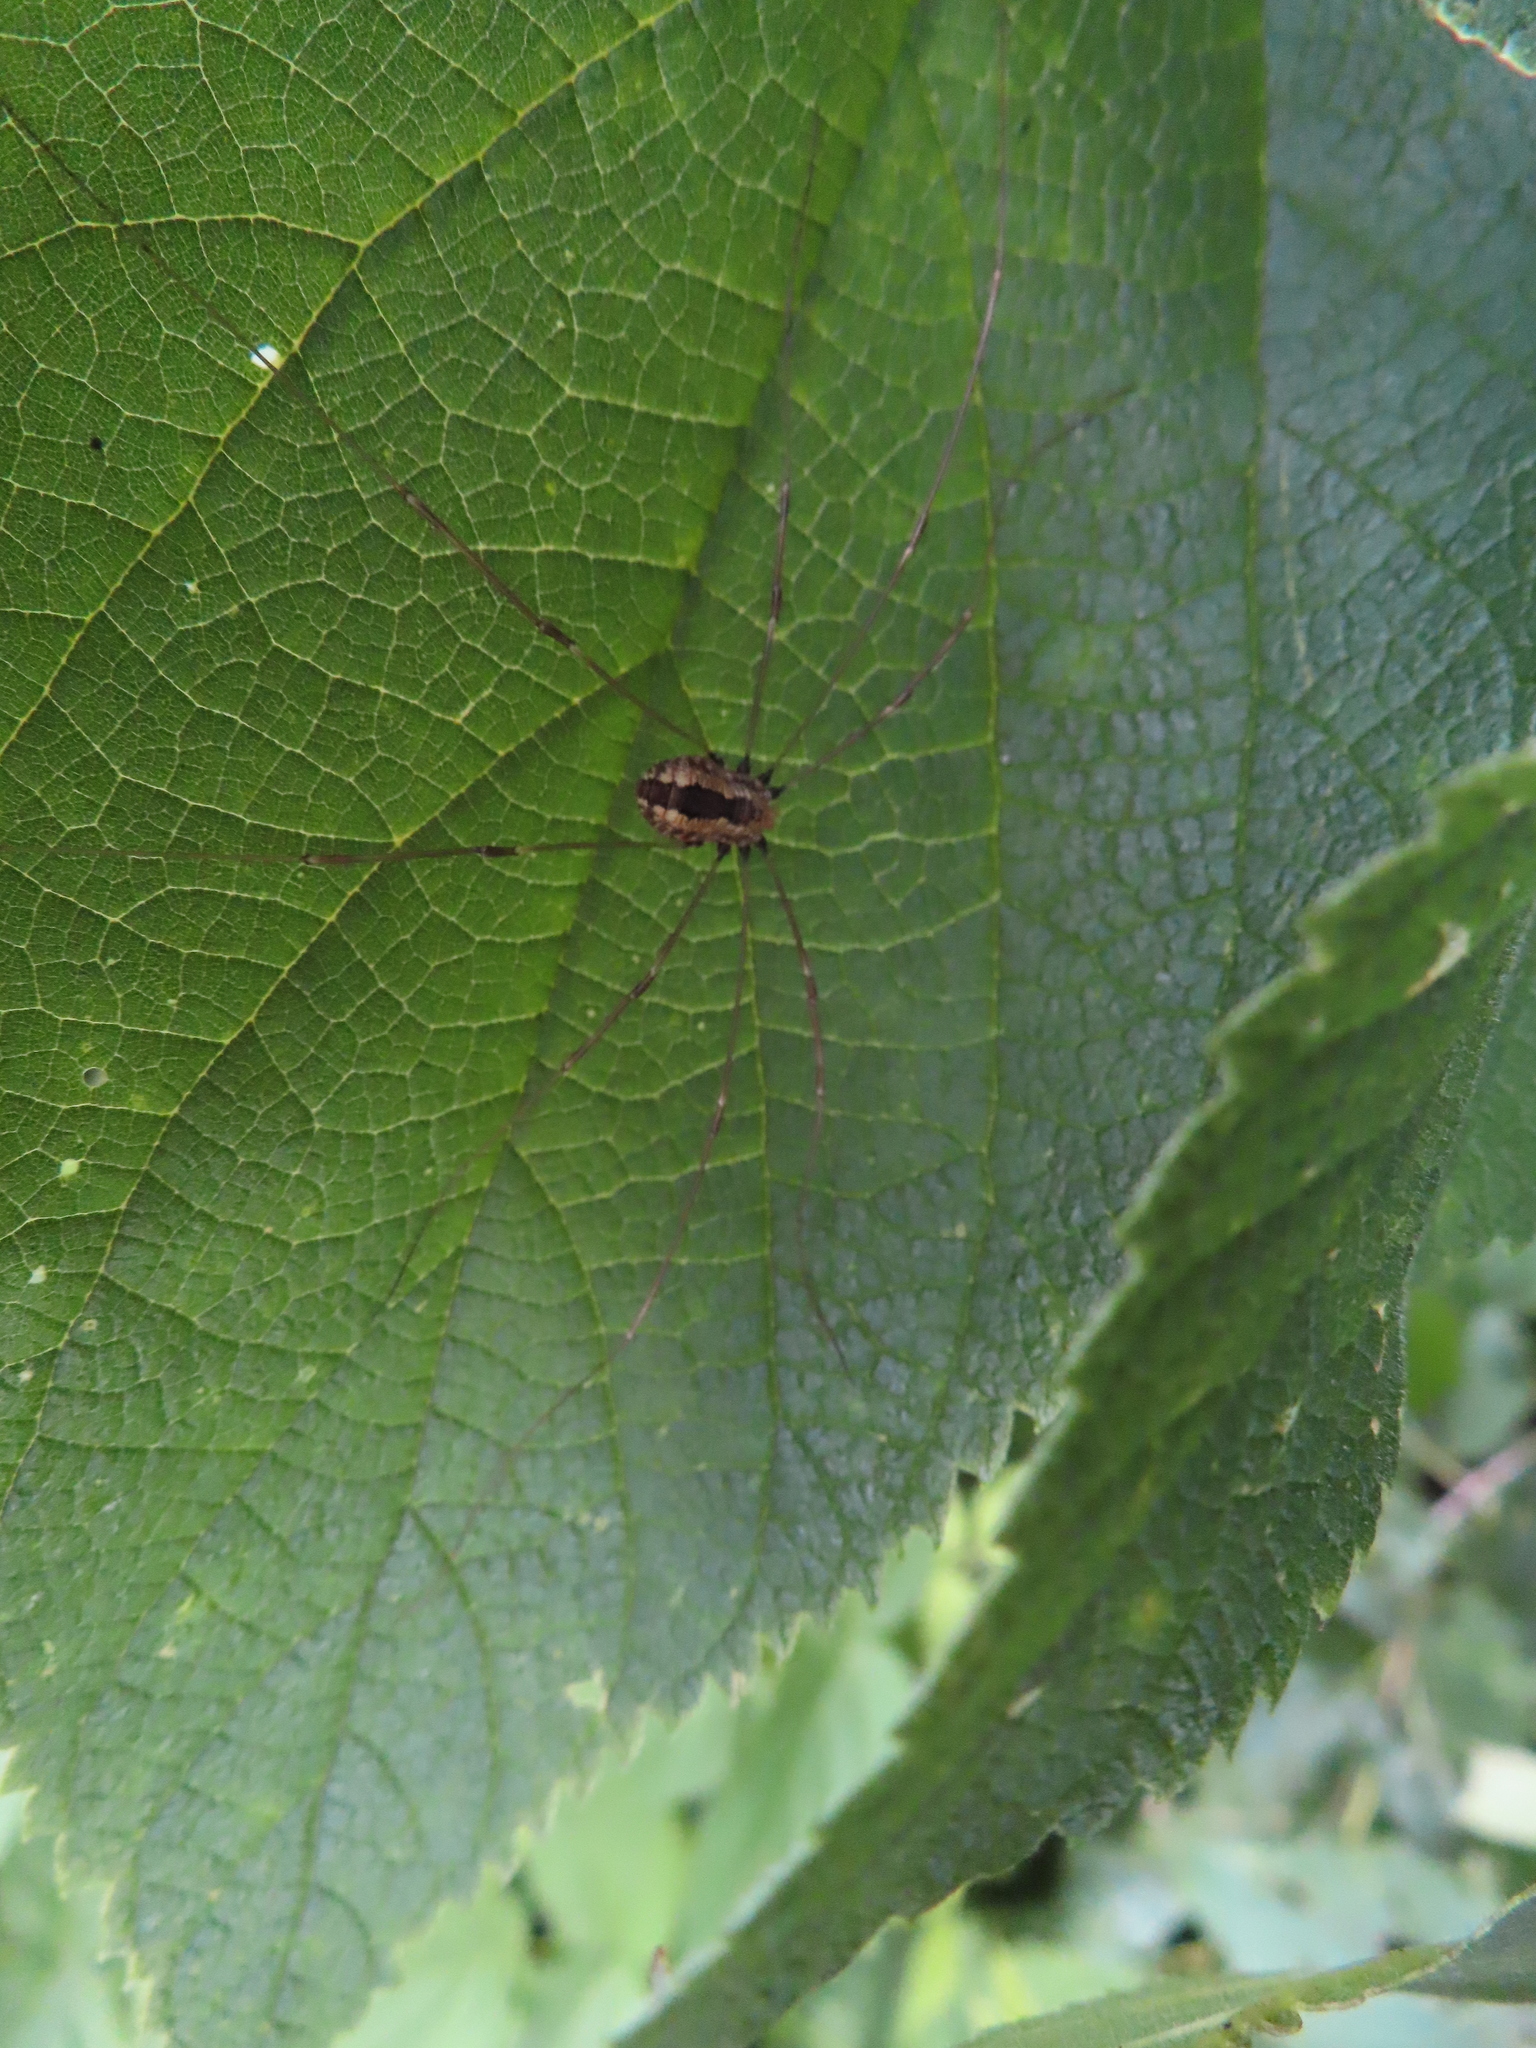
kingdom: Animalia
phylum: Arthropoda
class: Arachnida
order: Opiliones
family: Sclerosomatidae
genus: Leiobunum
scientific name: Leiobunum vittatum
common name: Eastern harvestman
